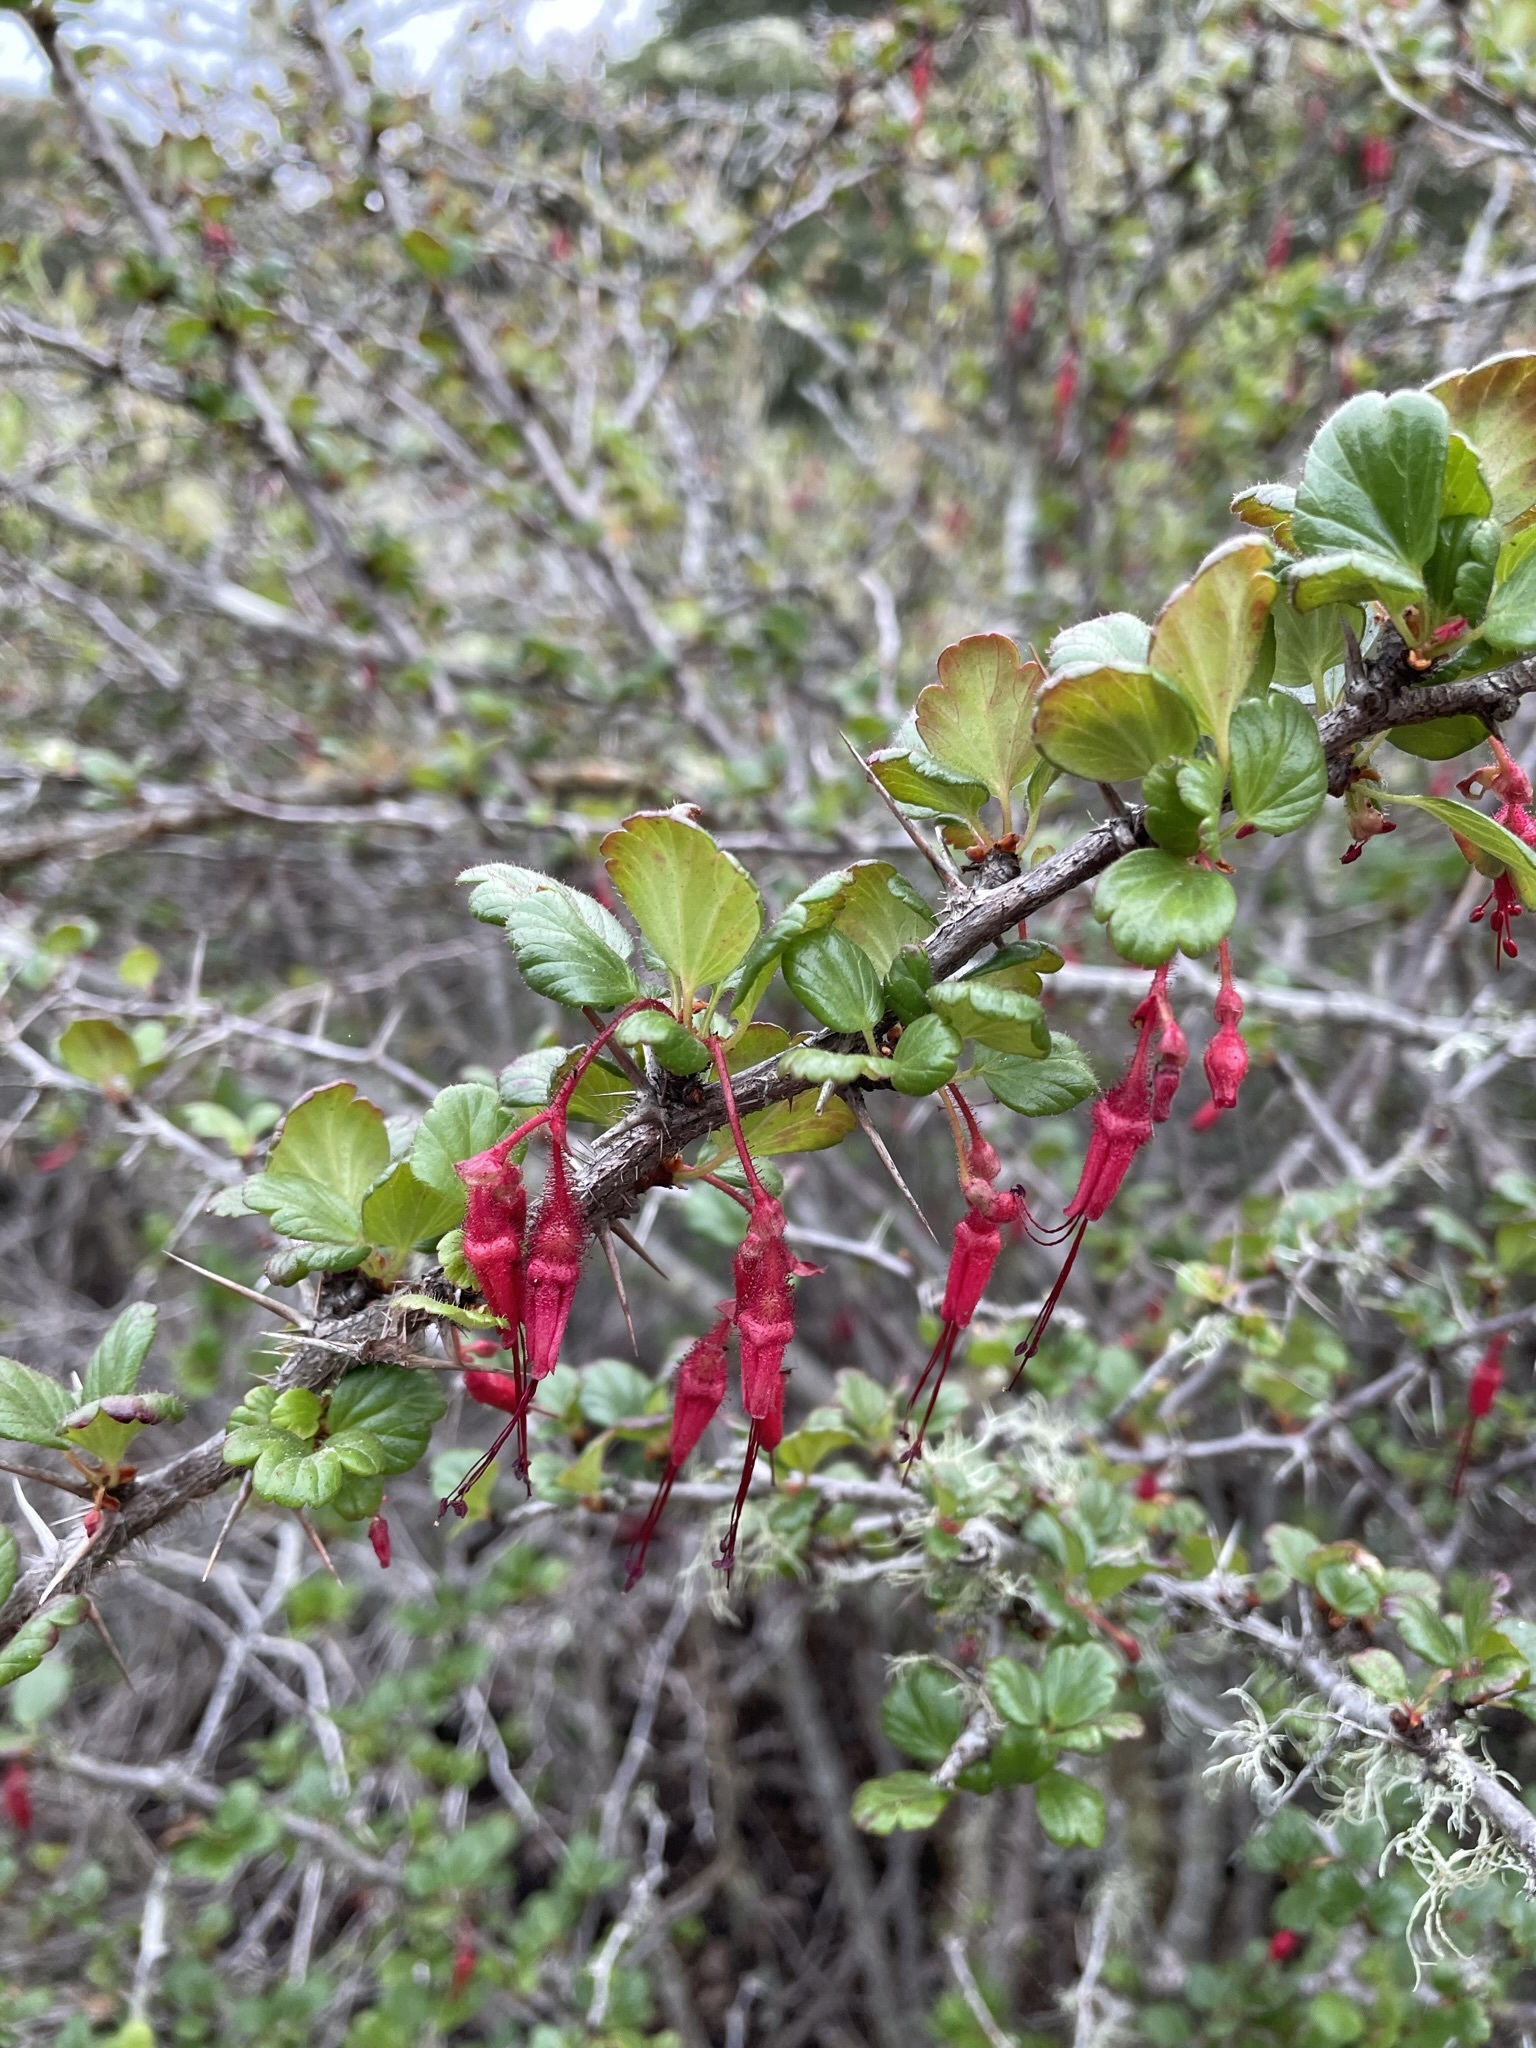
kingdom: Plantae
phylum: Tracheophyta
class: Magnoliopsida
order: Saxifragales
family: Grossulariaceae
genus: Ribes
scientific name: Ribes speciosum
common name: Fuchsia-flower gooseberry
